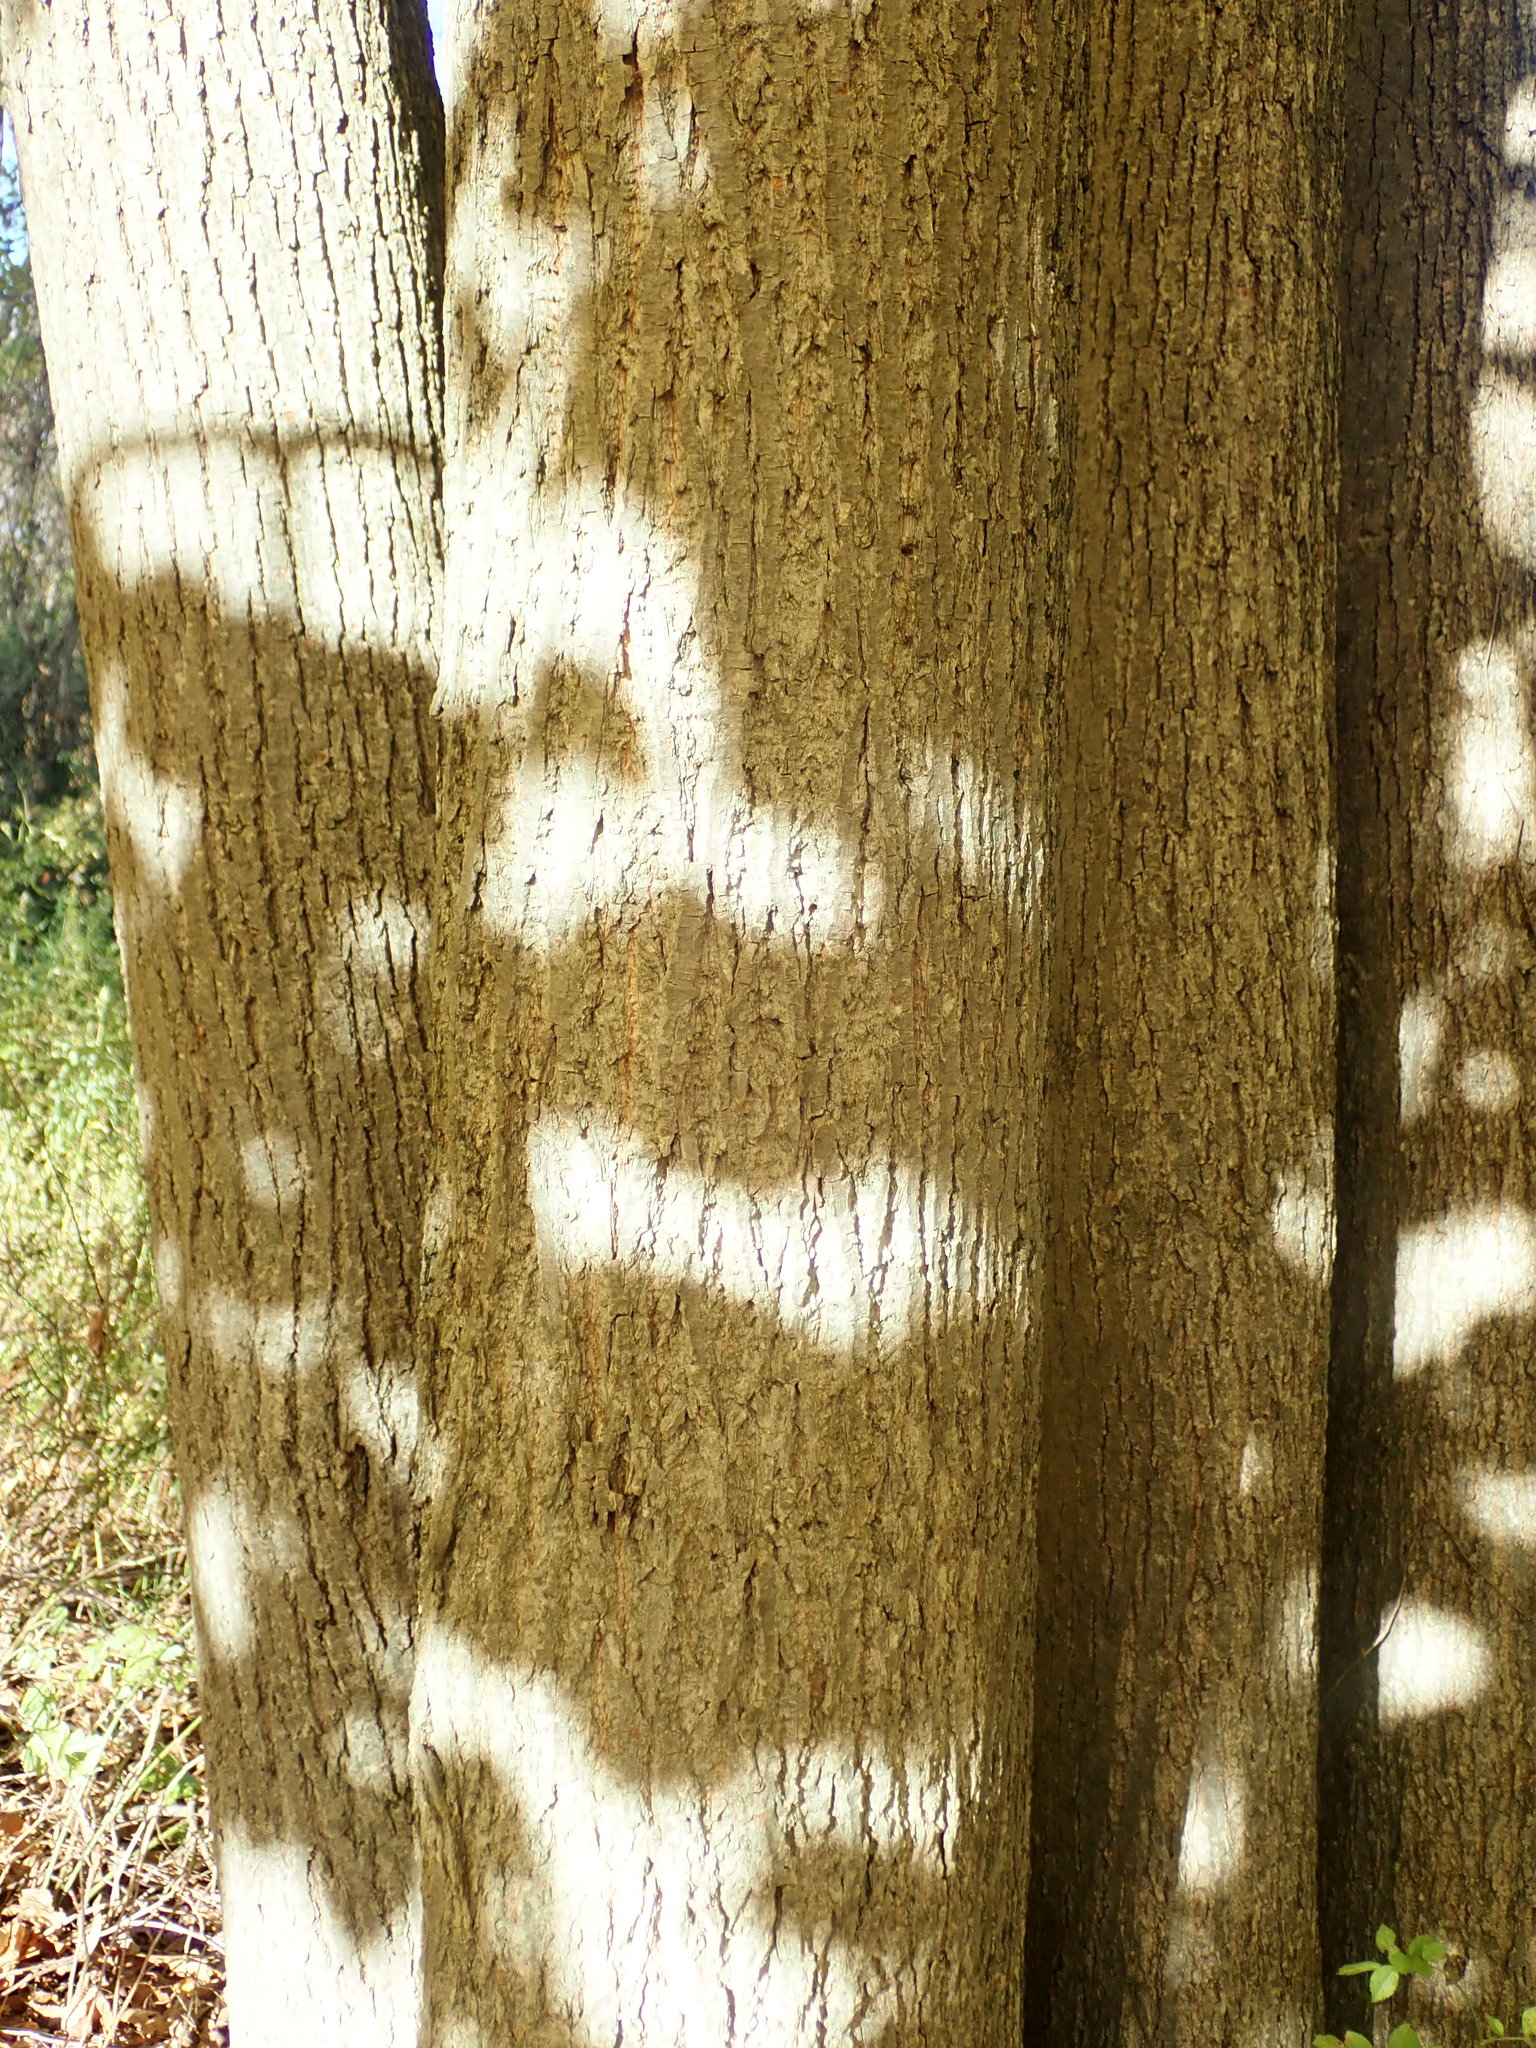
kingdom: Plantae
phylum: Tracheophyta
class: Magnoliopsida
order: Malvales
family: Malvaceae
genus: Tilia
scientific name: Tilia americana
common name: Basswood
